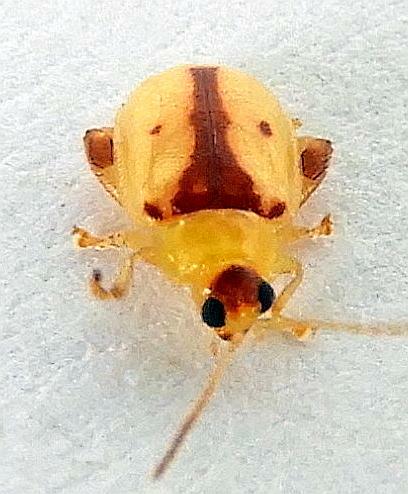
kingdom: Animalia
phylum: Arthropoda
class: Insecta
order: Coleoptera
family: Chrysomelidae
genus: Capraita
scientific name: Capraita suturalis
